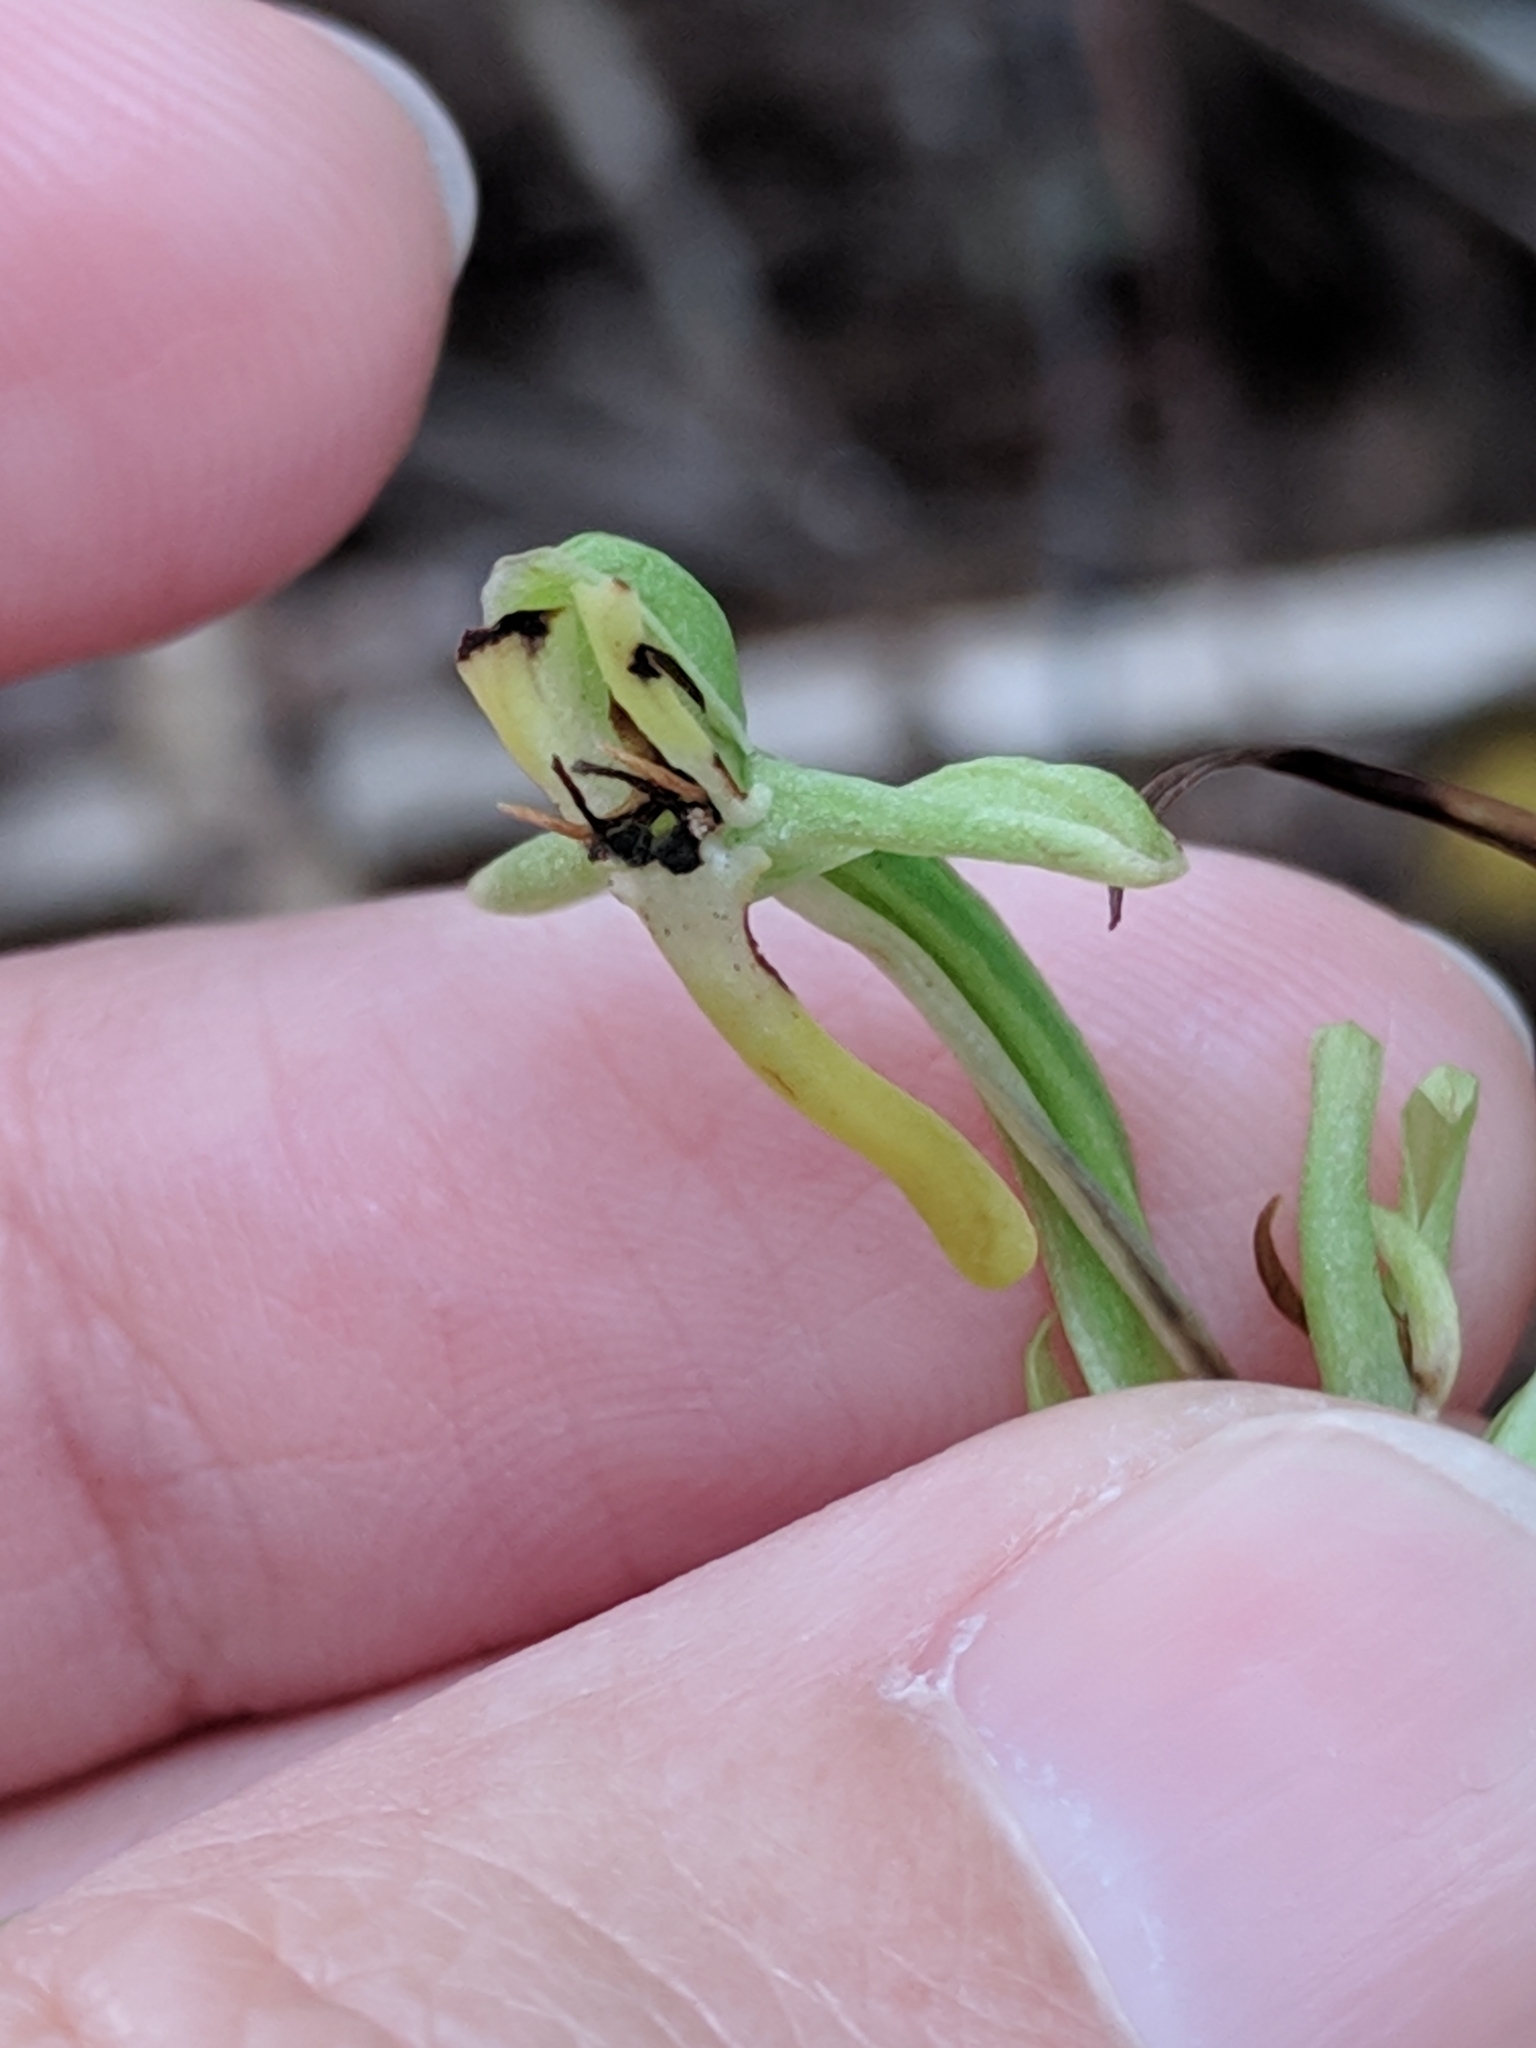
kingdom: Plantae
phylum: Tracheophyta
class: Liliopsida
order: Asparagales
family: Orchidaceae
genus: Habenaria
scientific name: Habenaria floribunda
